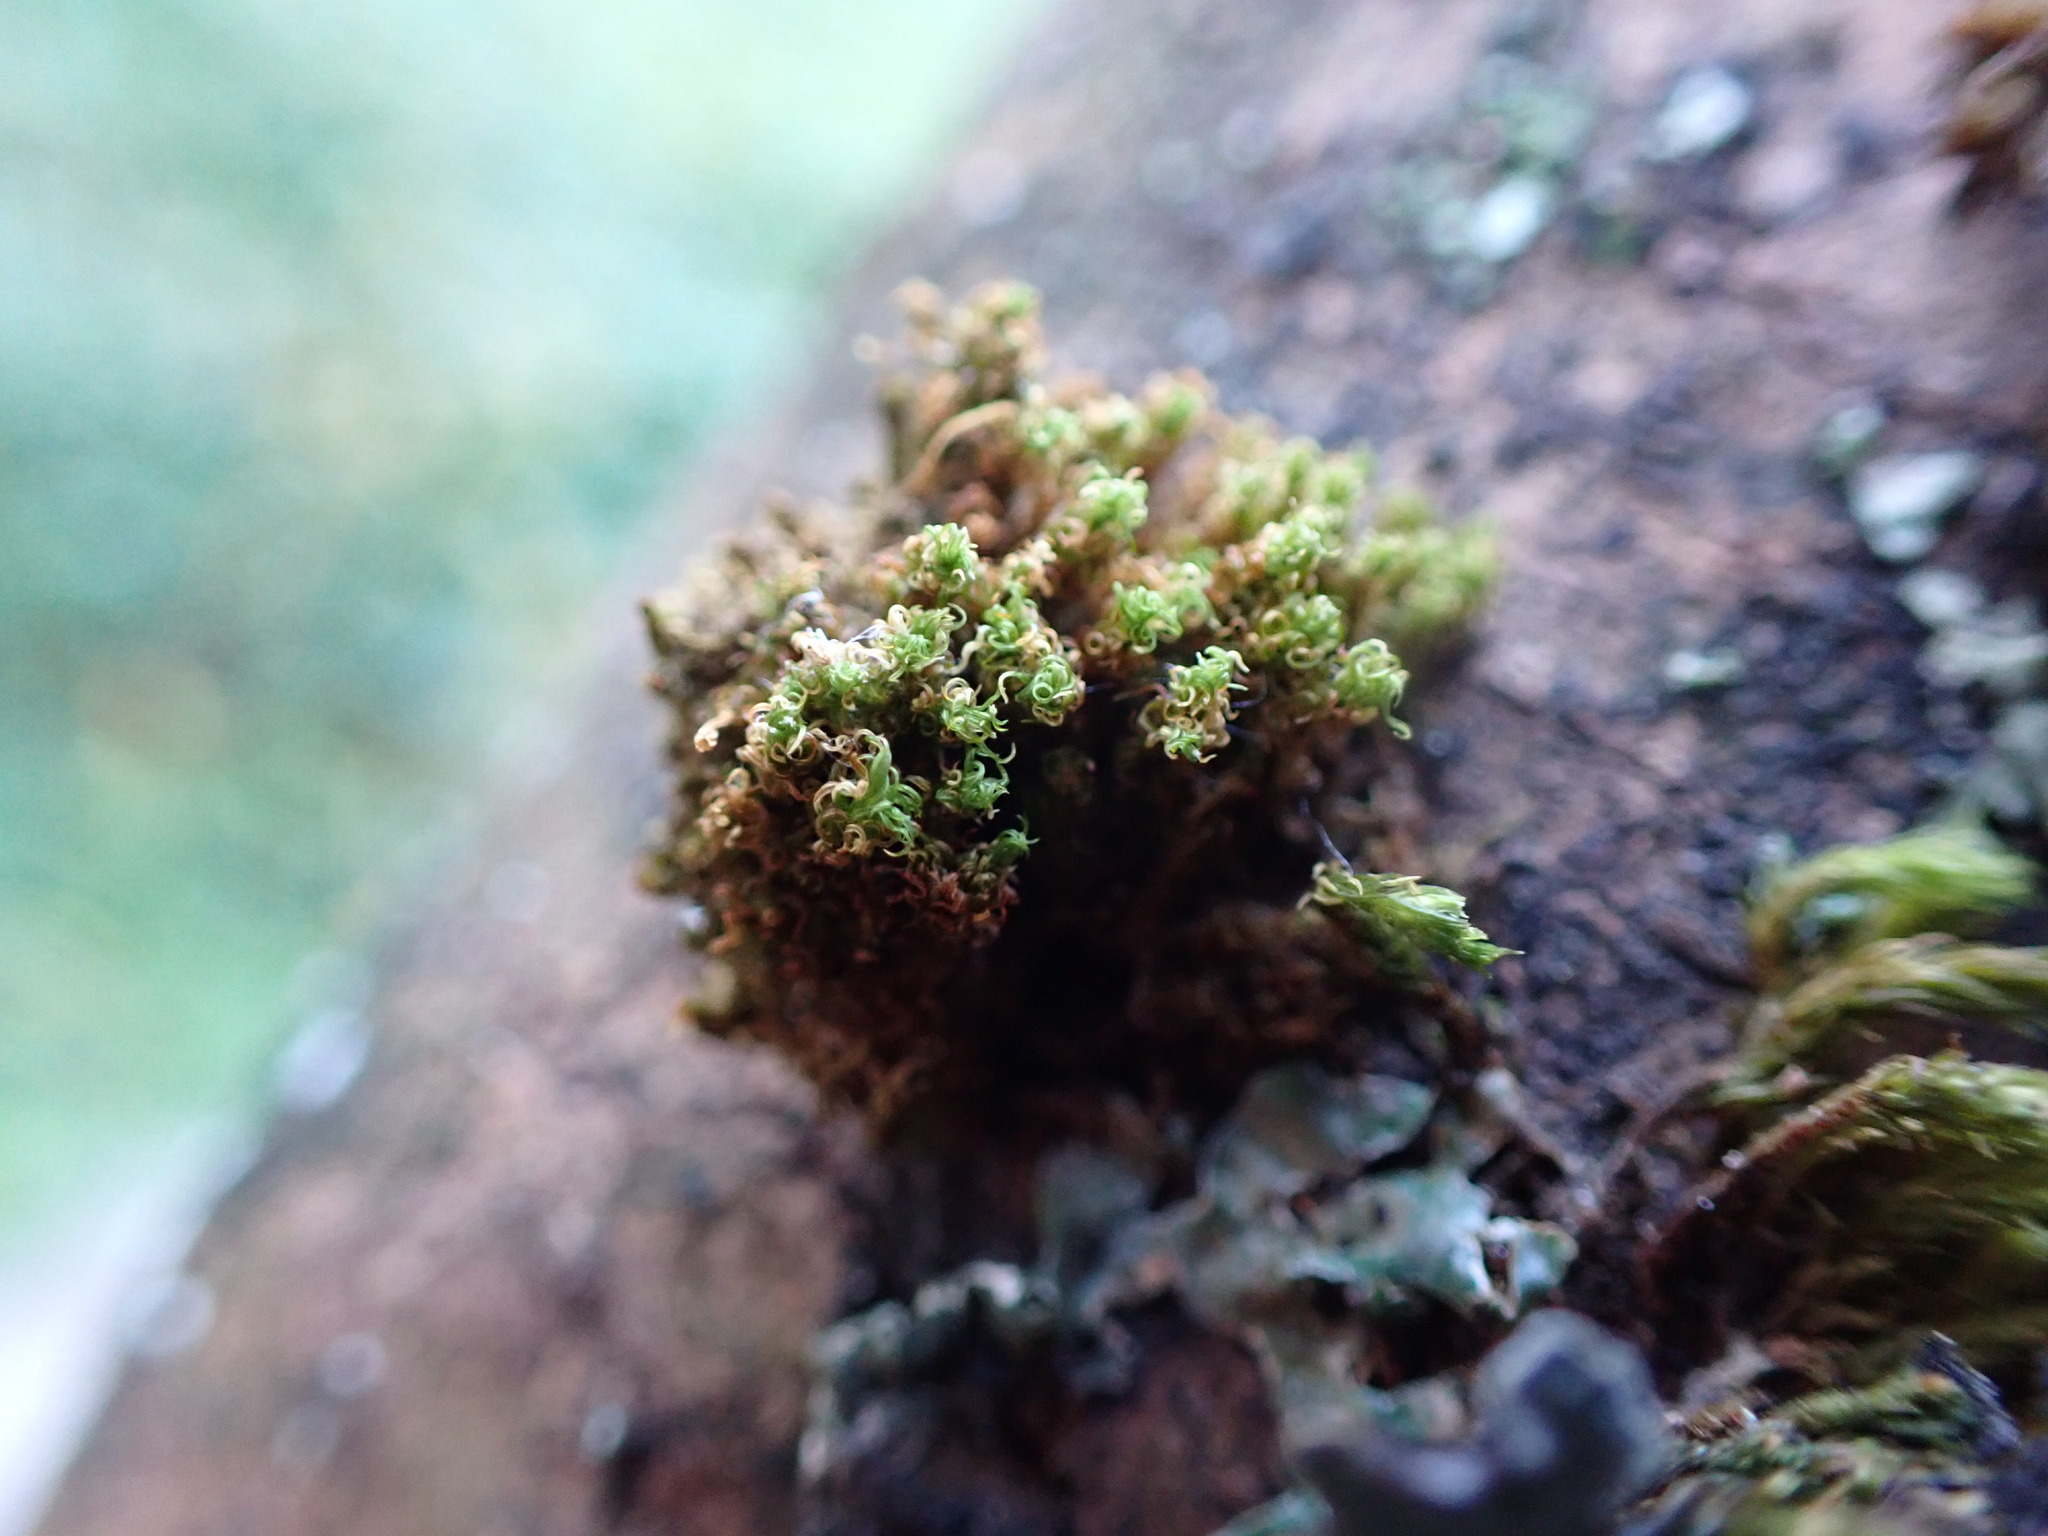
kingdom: Plantae
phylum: Bryophyta
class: Bryopsida
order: Orthotrichales
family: Orthotrichaceae
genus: Ulota
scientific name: Ulota obtusiuscula
